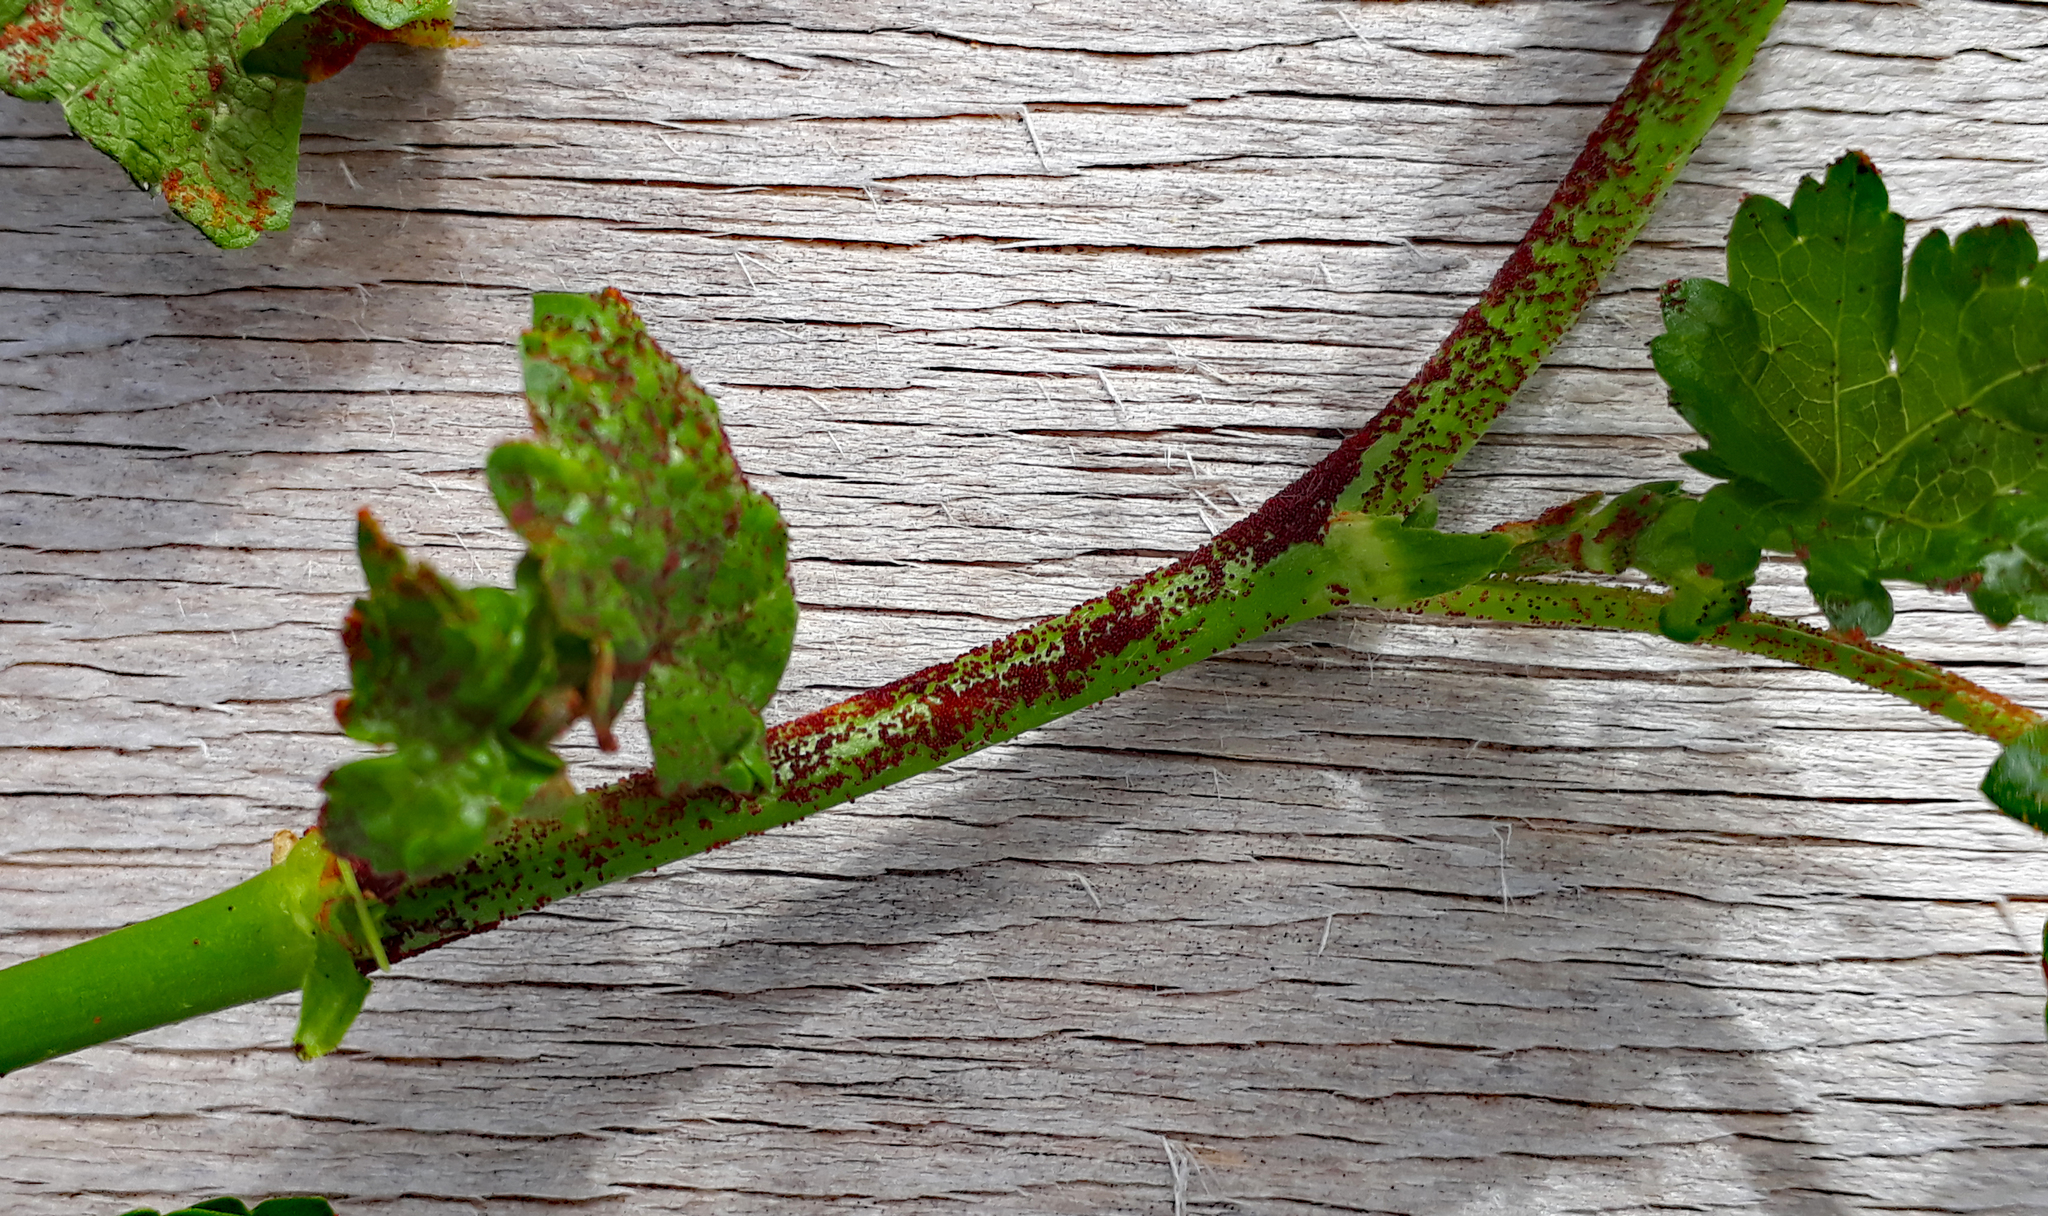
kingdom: Fungi
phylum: Chytridiomycota
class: Chytridiomycetes
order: Chytridiales
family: Synchytriaceae
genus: Synchytrium
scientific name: Synchytrium australe
